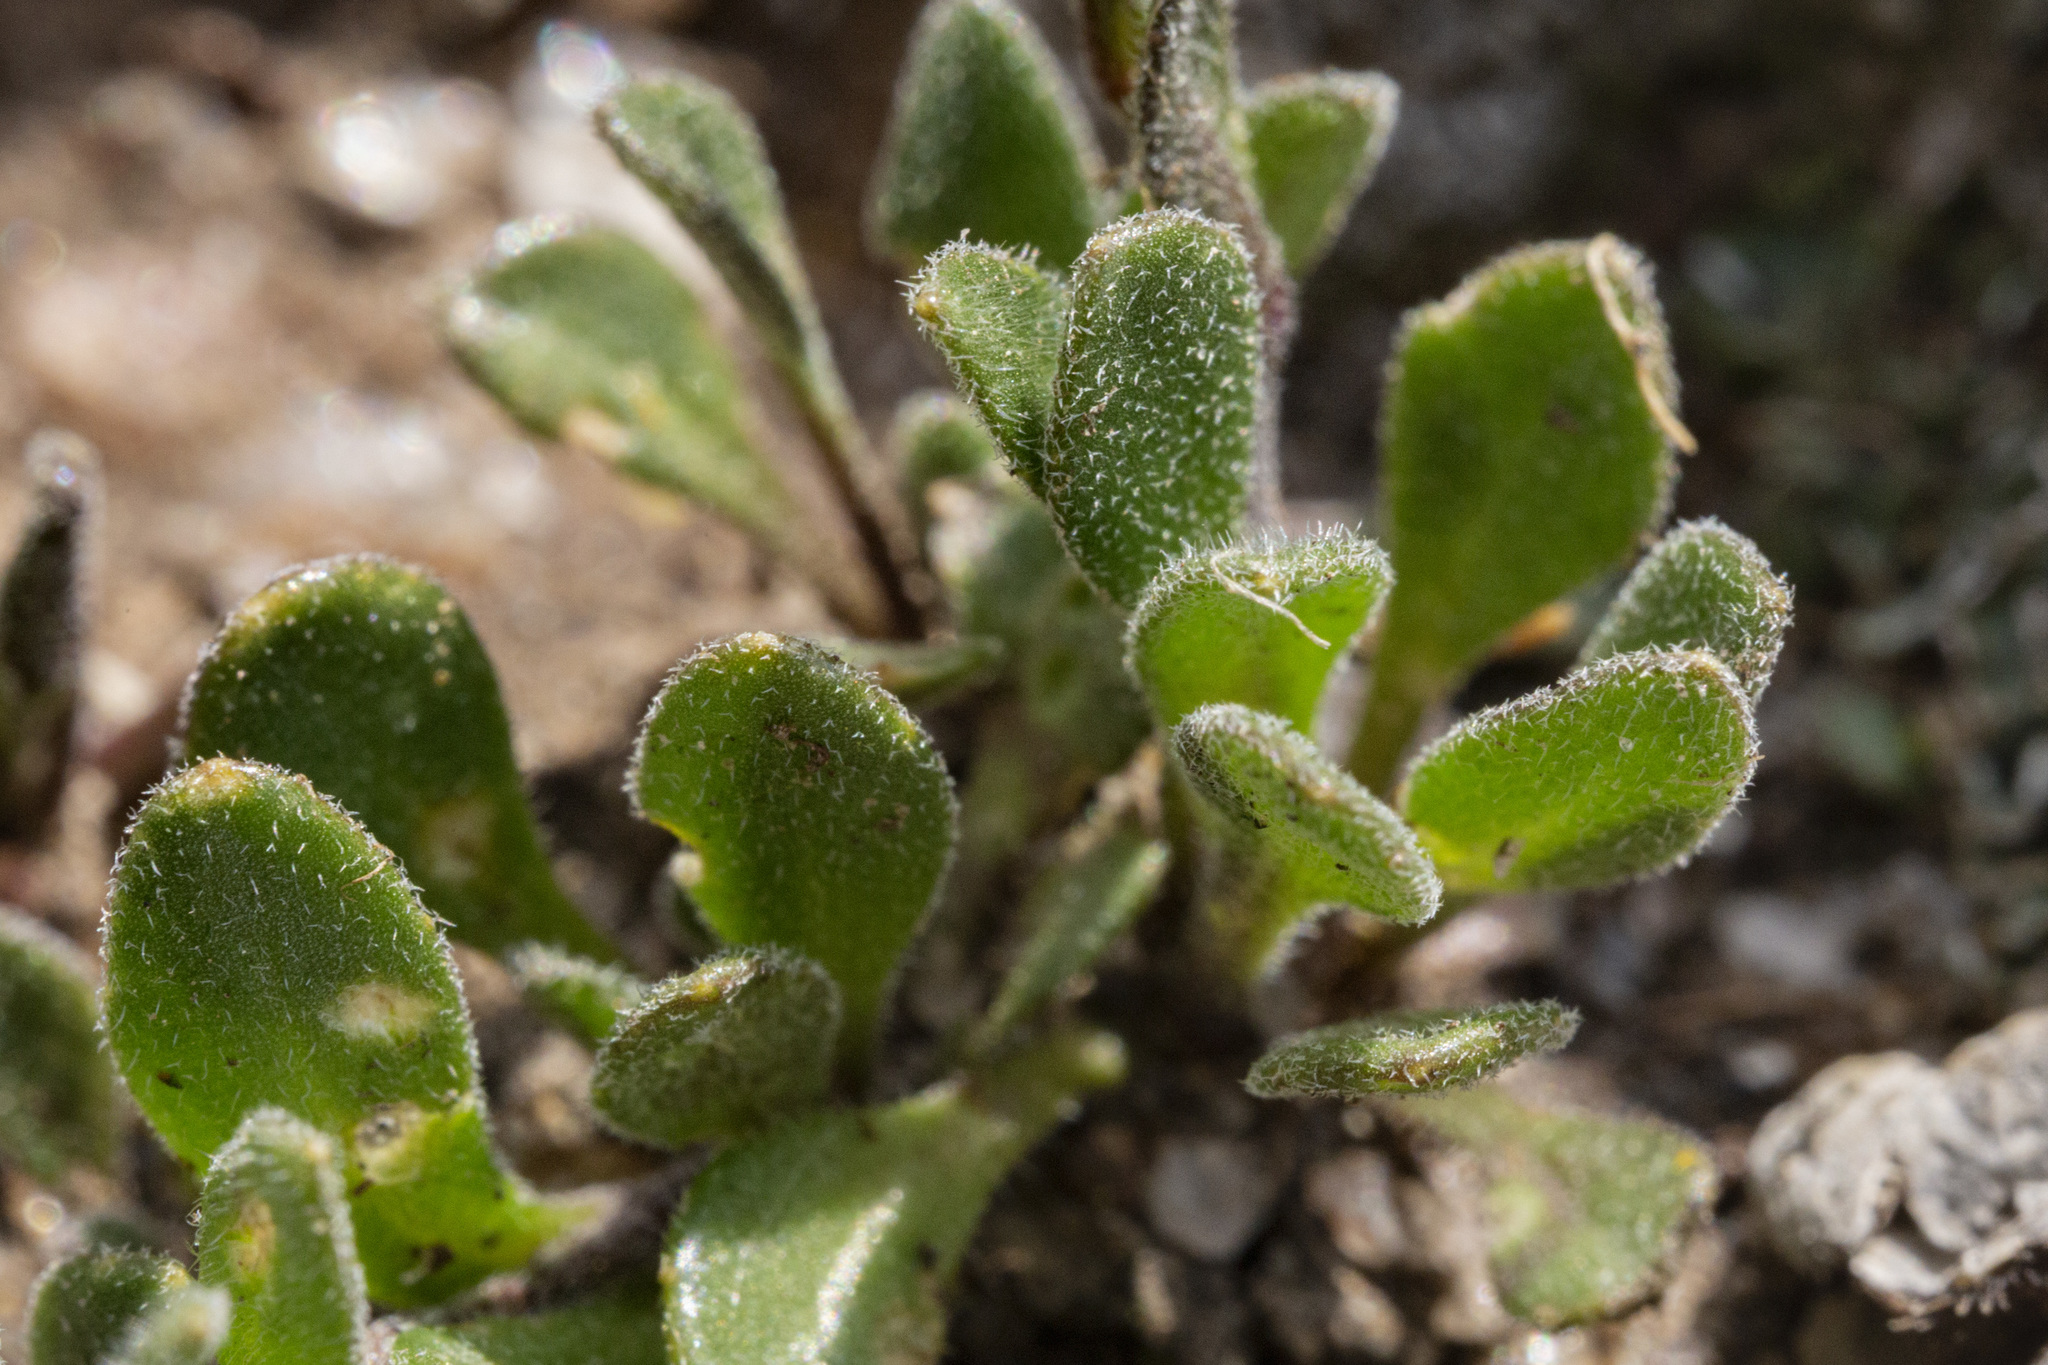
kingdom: Plantae
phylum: Tracheophyta
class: Magnoliopsida
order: Brassicales
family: Brassicaceae
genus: Draba
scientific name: Draba aurea
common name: Golden draba
